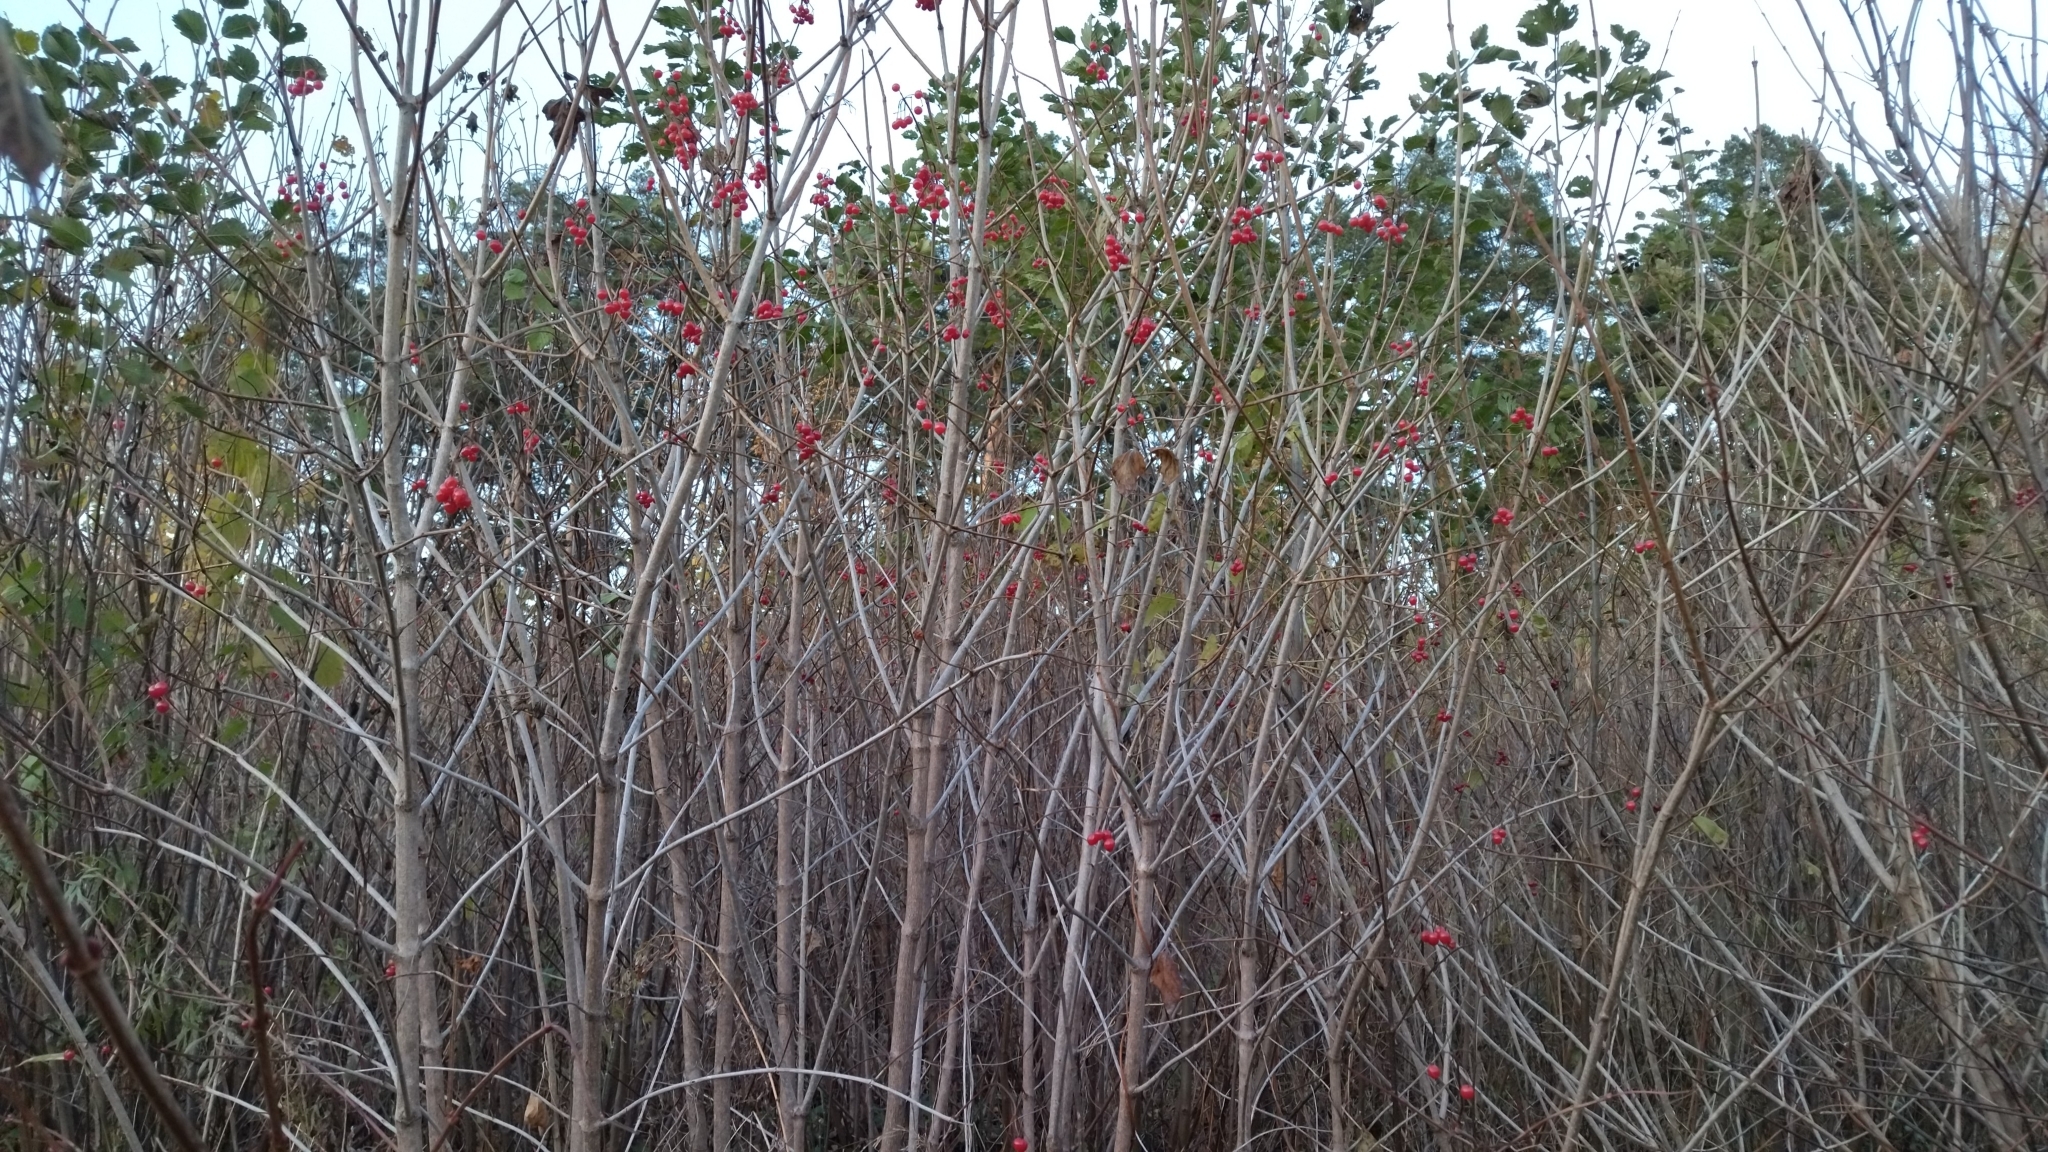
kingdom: Plantae
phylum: Tracheophyta
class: Magnoliopsida
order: Dipsacales
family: Viburnaceae
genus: Viburnum
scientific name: Viburnum opulus
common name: Guelder-rose
